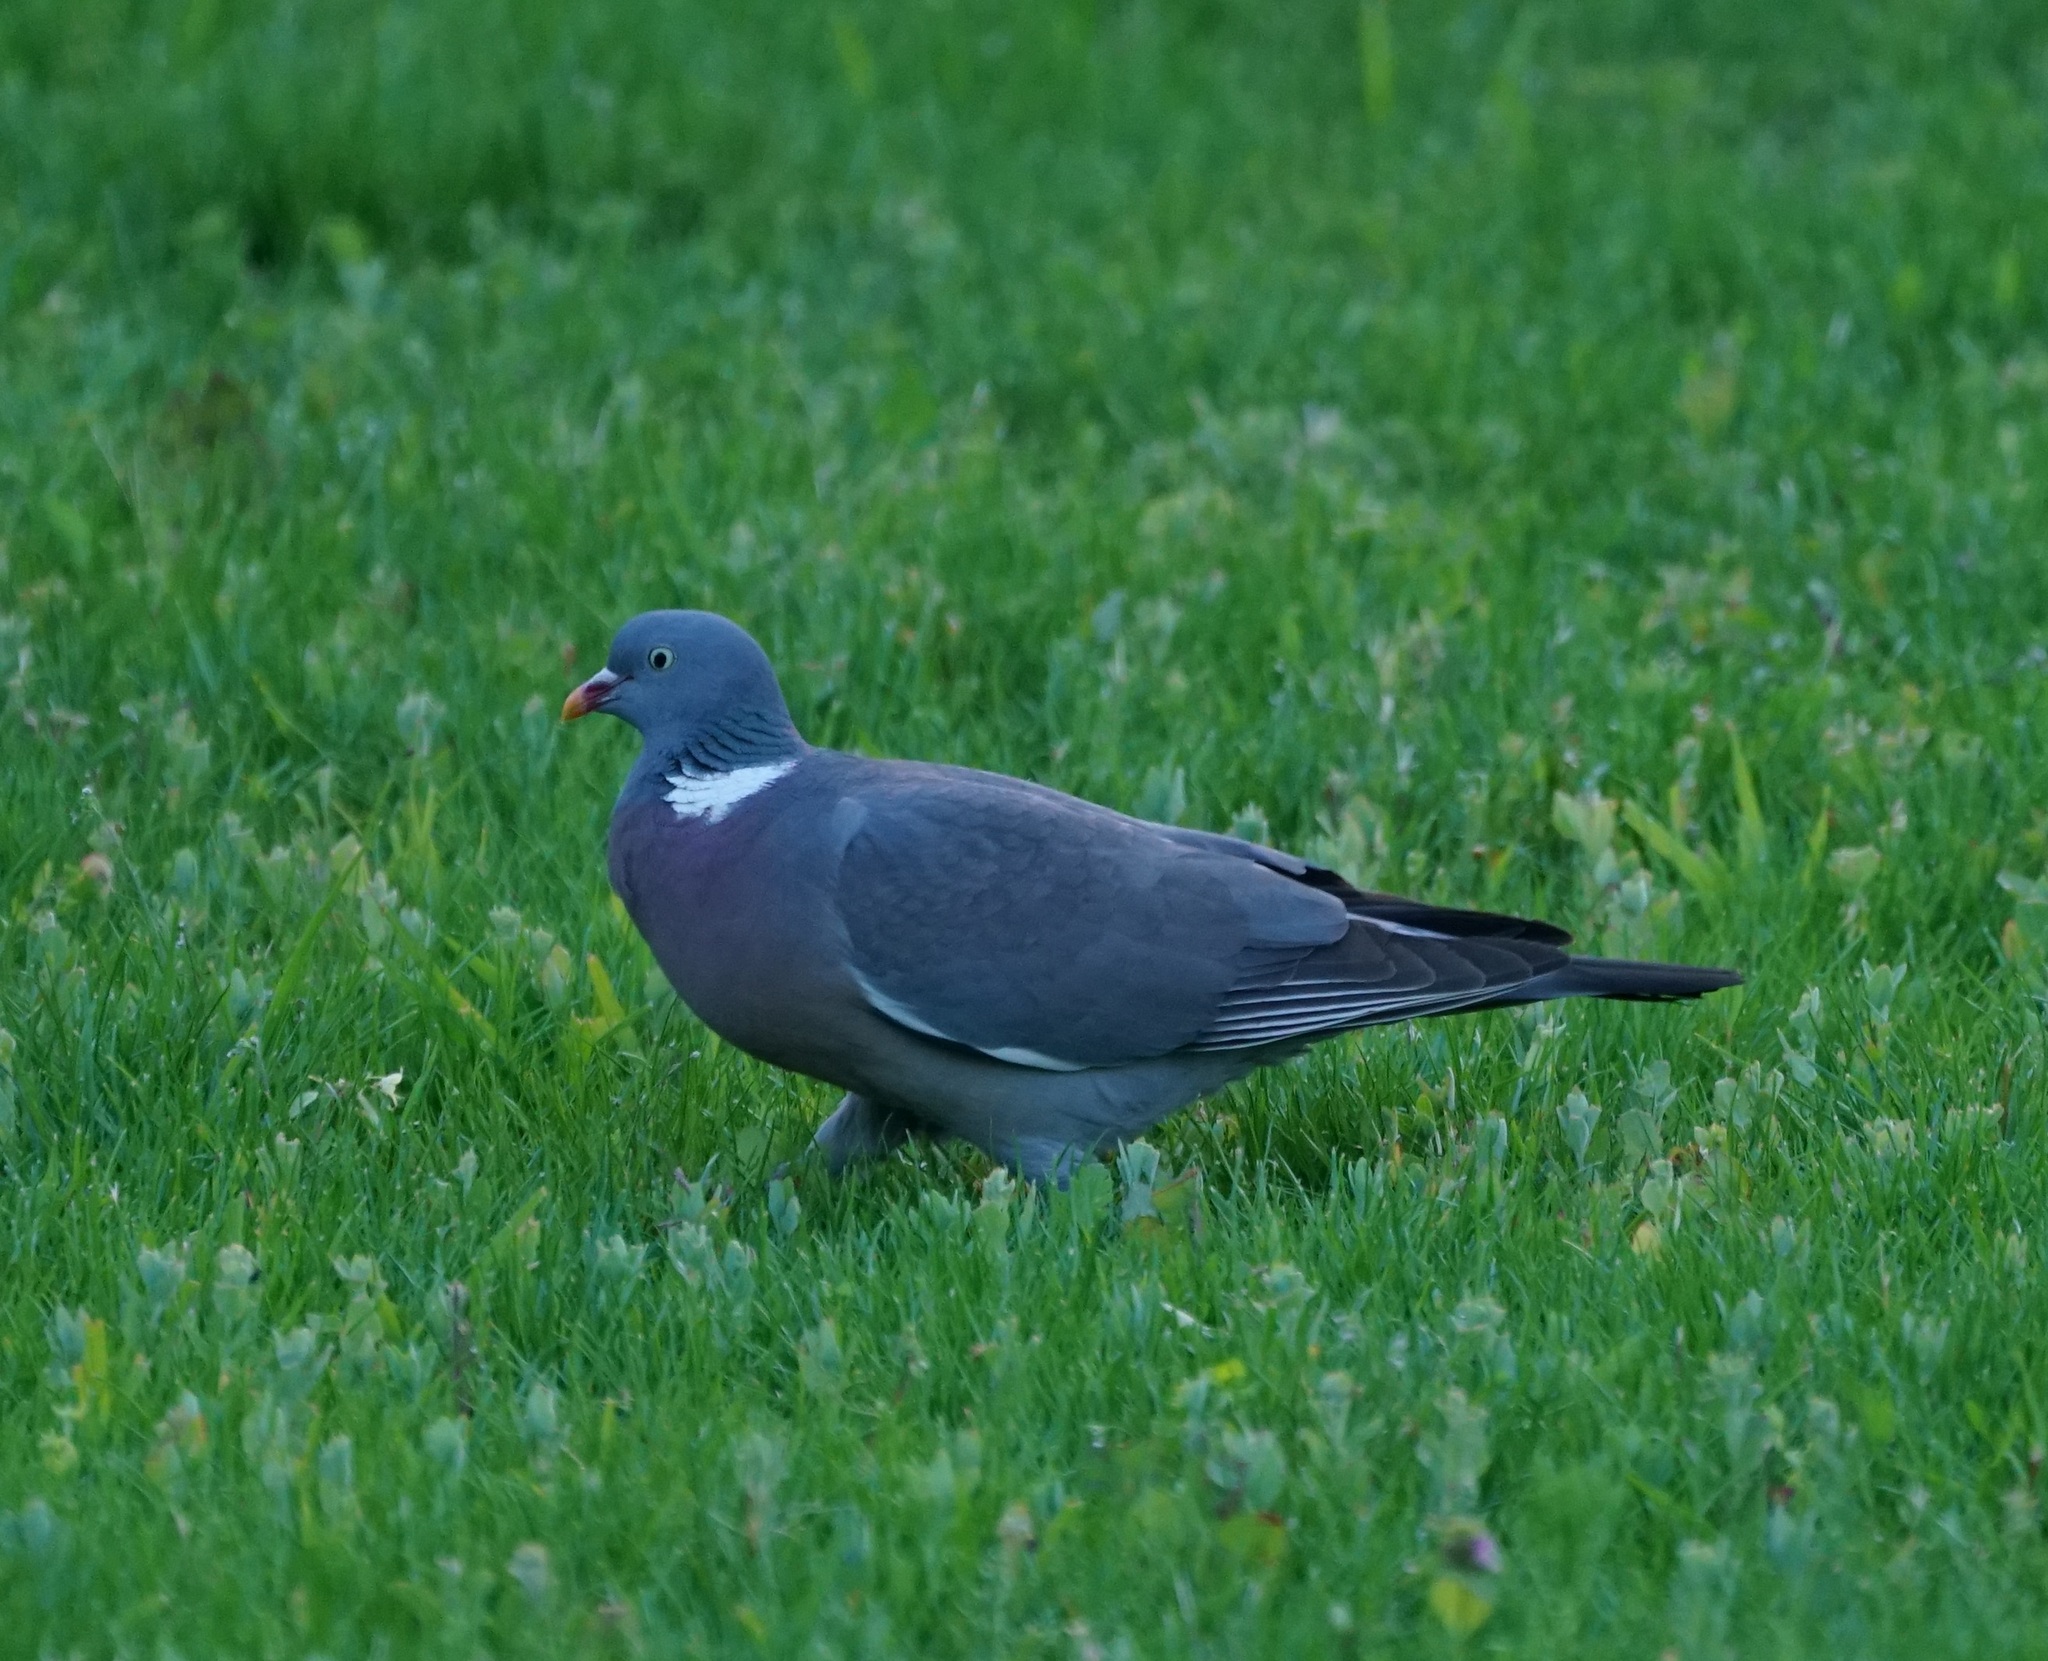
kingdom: Animalia
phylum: Chordata
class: Aves
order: Columbiformes
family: Columbidae
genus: Columba
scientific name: Columba palumbus
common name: Common wood pigeon
